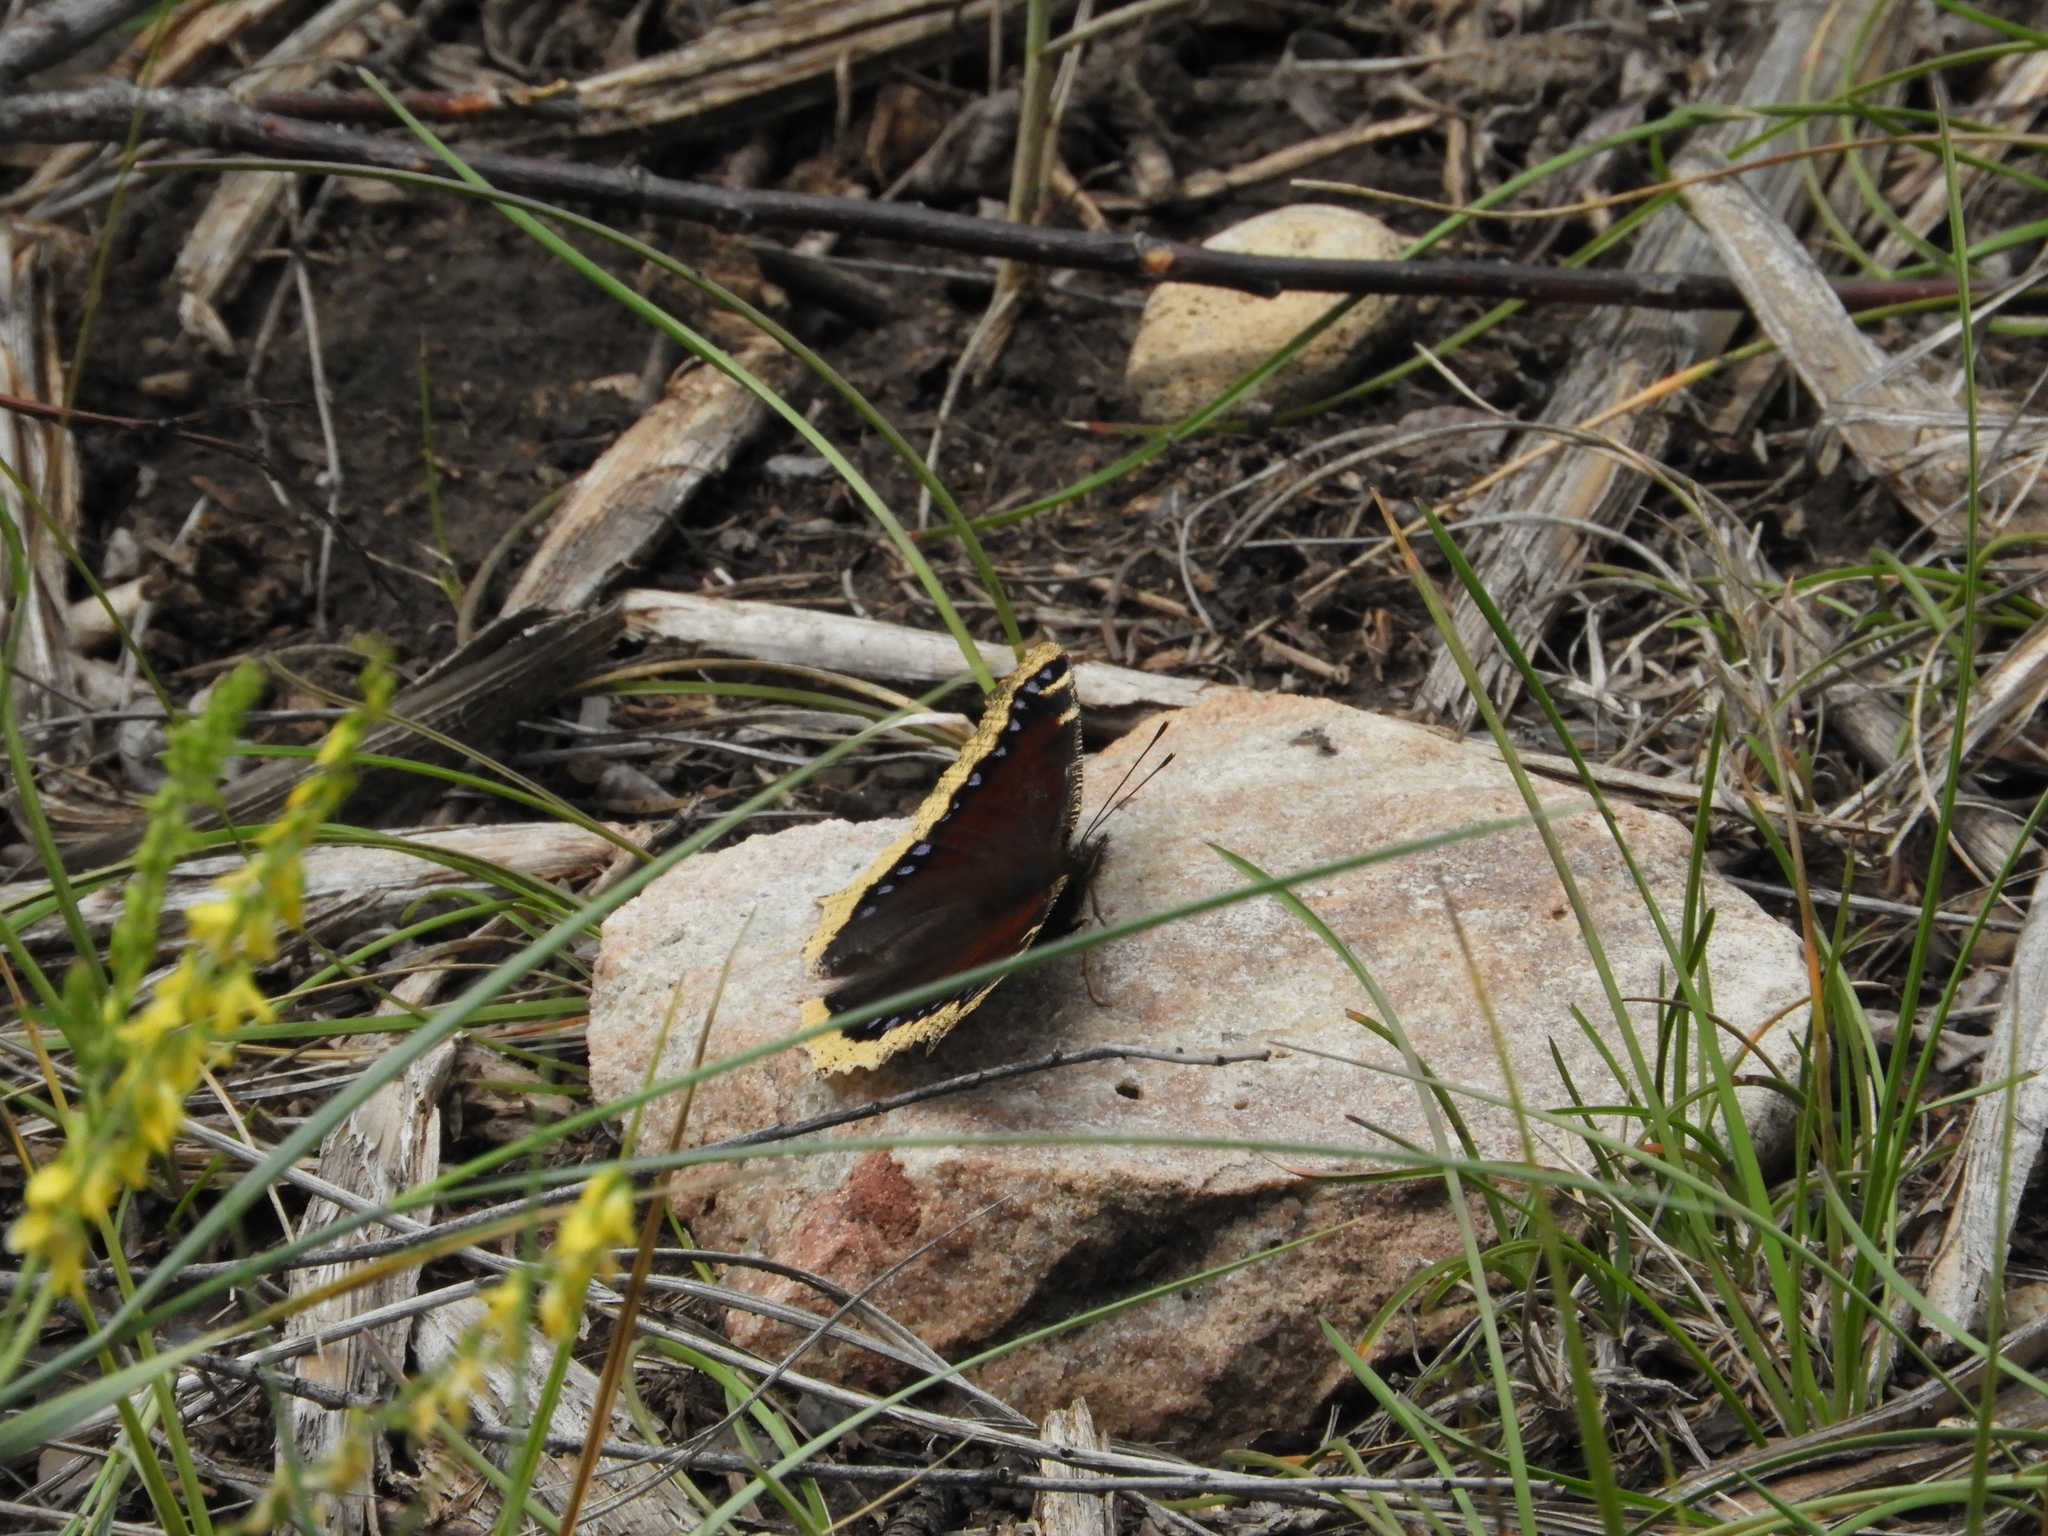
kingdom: Animalia
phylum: Arthropoda
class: Insecta
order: Lepidoptera
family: Nymphalidae
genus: Nymphalis
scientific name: Nymphalis antiopa
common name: Camberwell beauty
